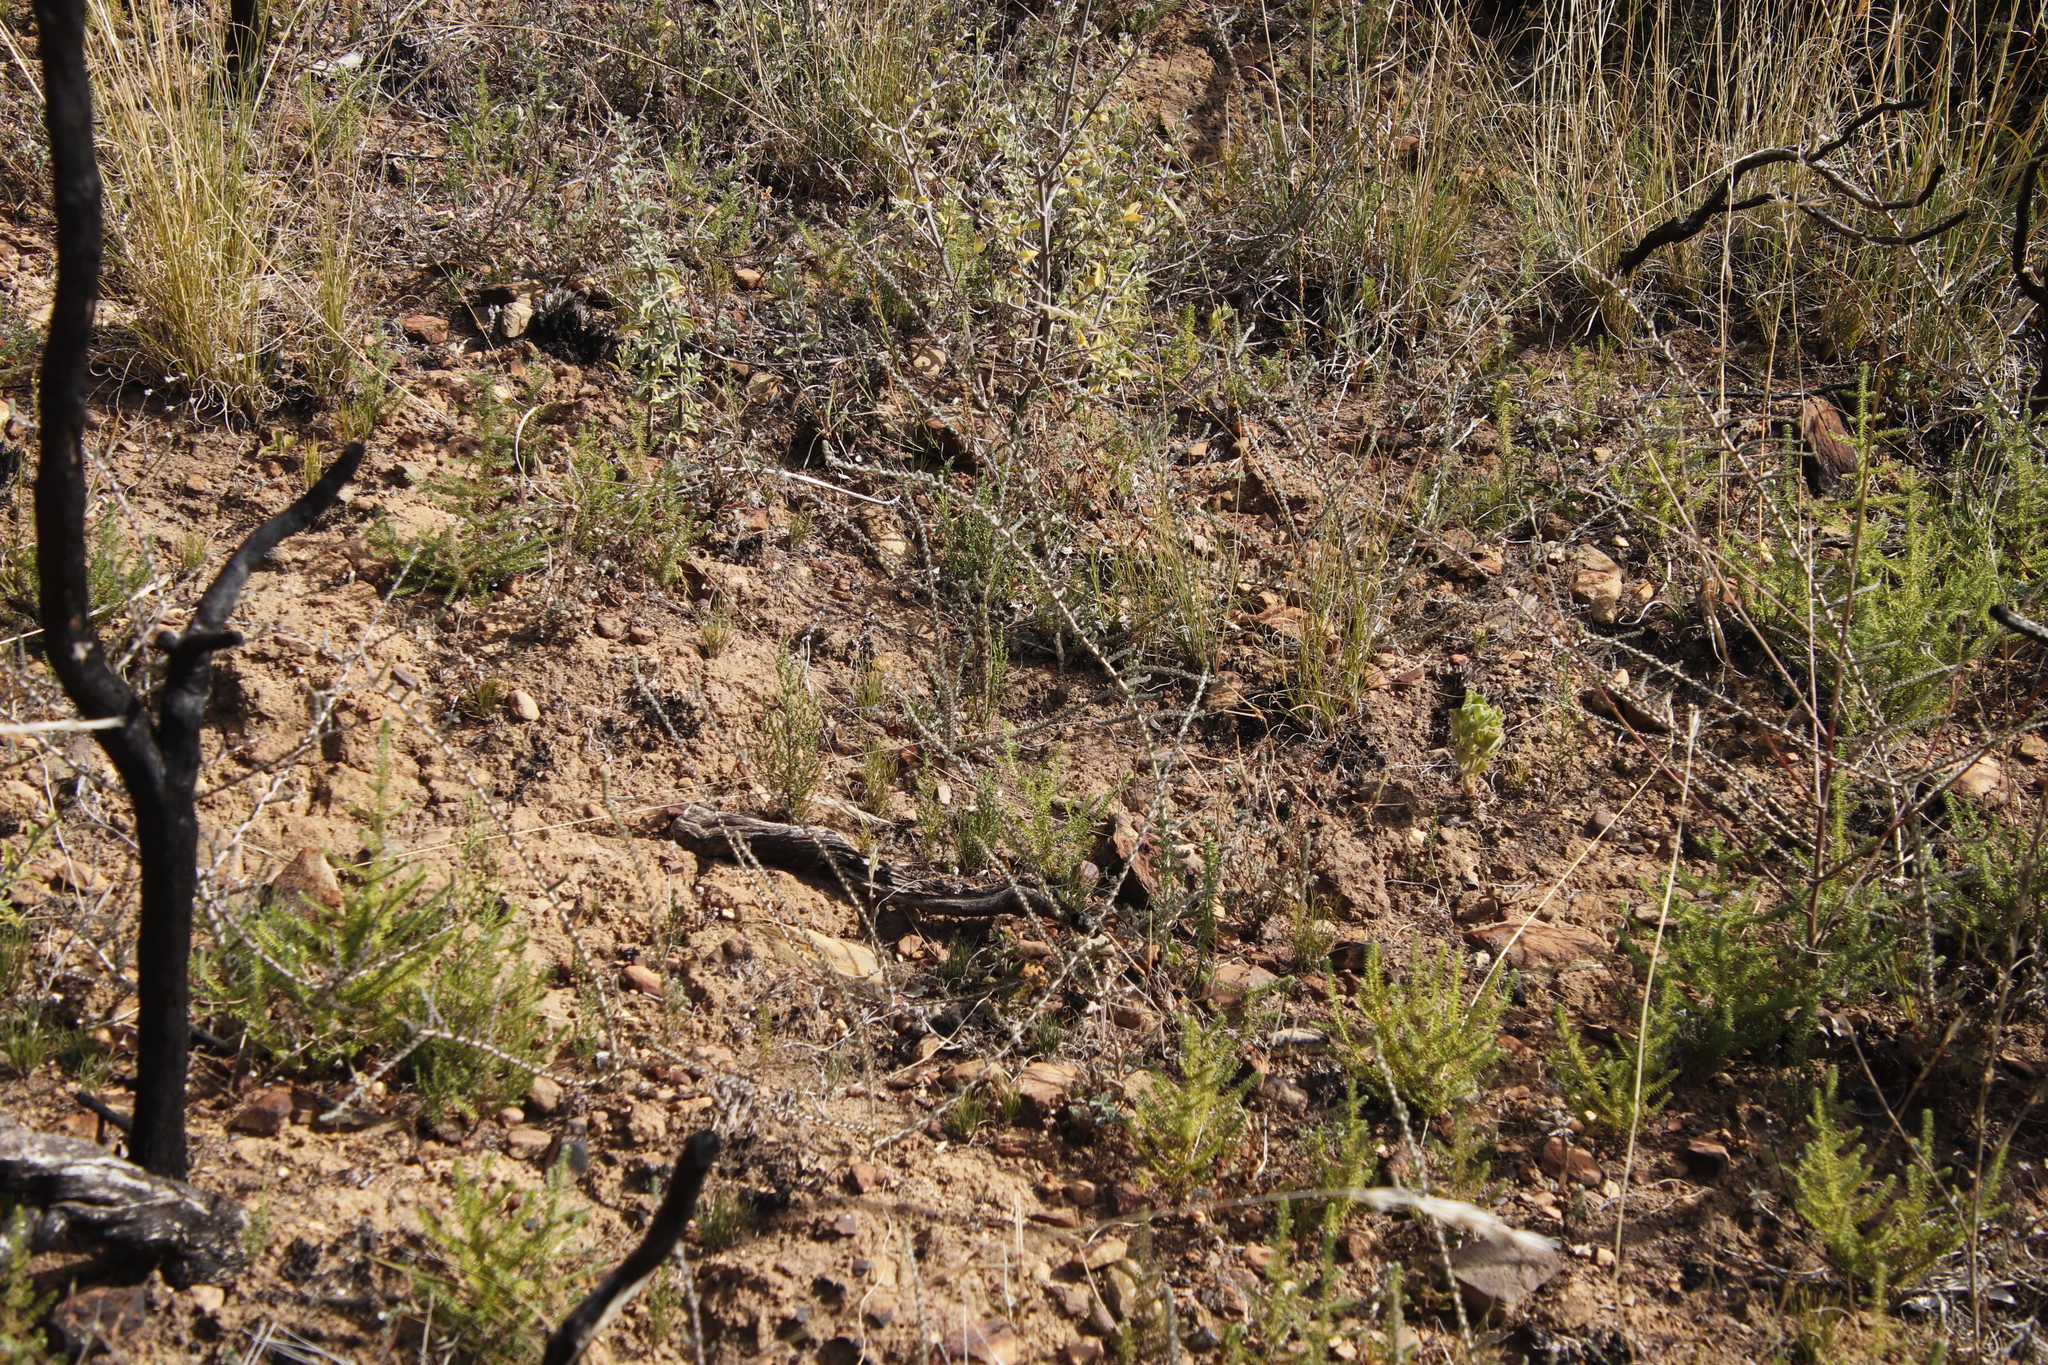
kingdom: Plantae
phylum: Tracheophyta
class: Magnoliopsida
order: Fabales
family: Fabaceae
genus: Aspalathus
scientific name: Aspalathus hispida
